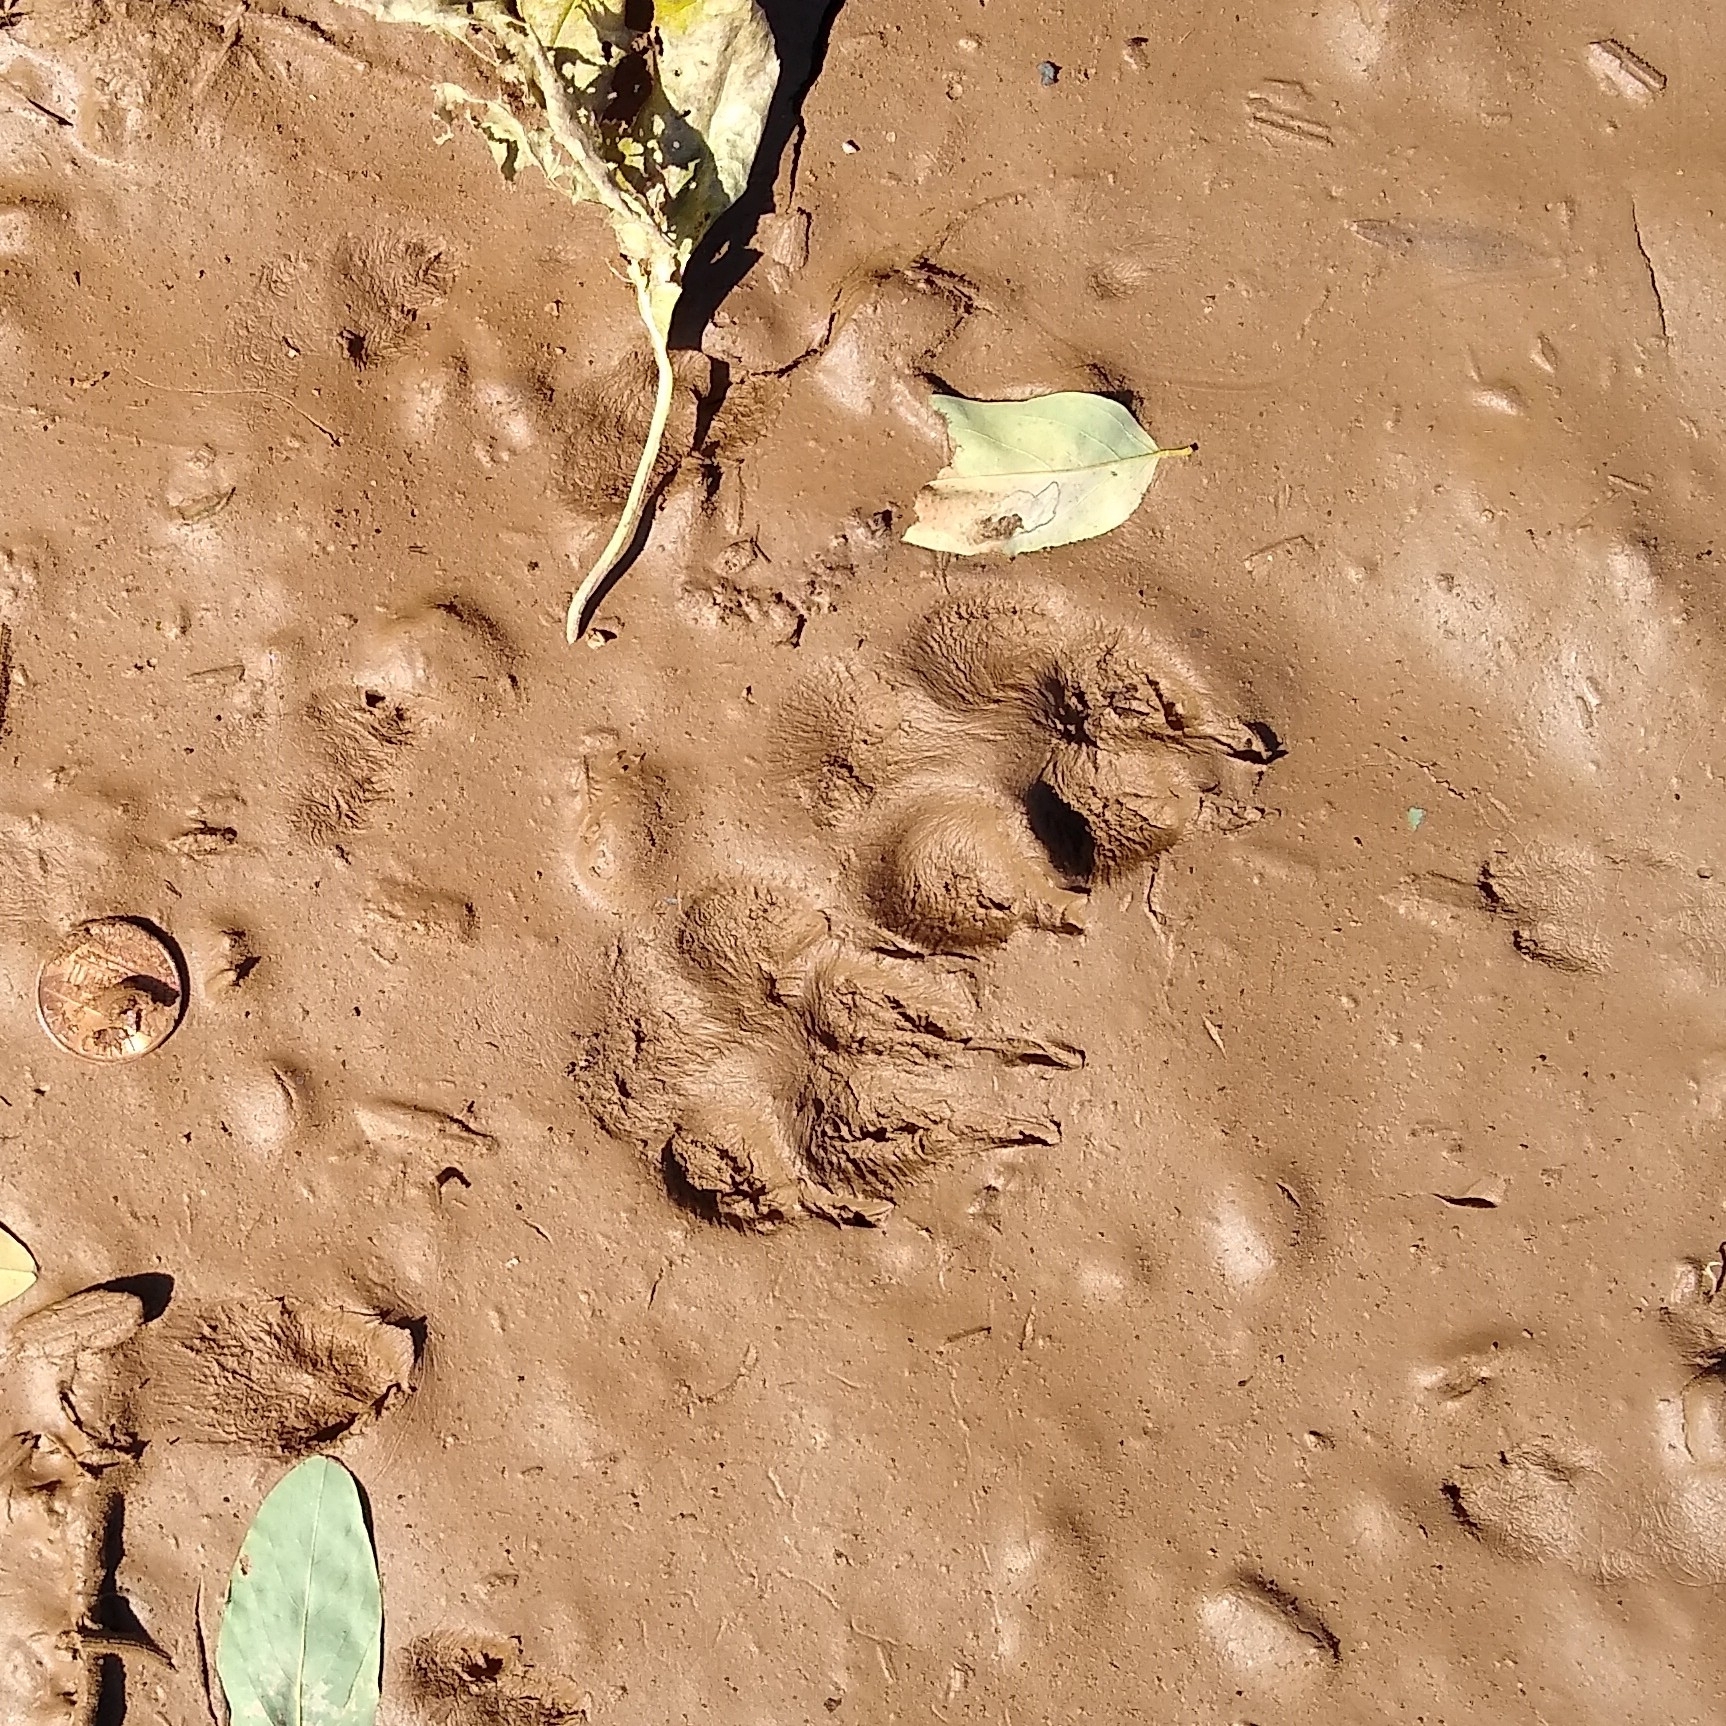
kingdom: Animalia
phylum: Chordata
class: Mammalia
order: Carnivora
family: Canidae
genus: Vulpes
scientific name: Vulpes vulpes
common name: Red fox
